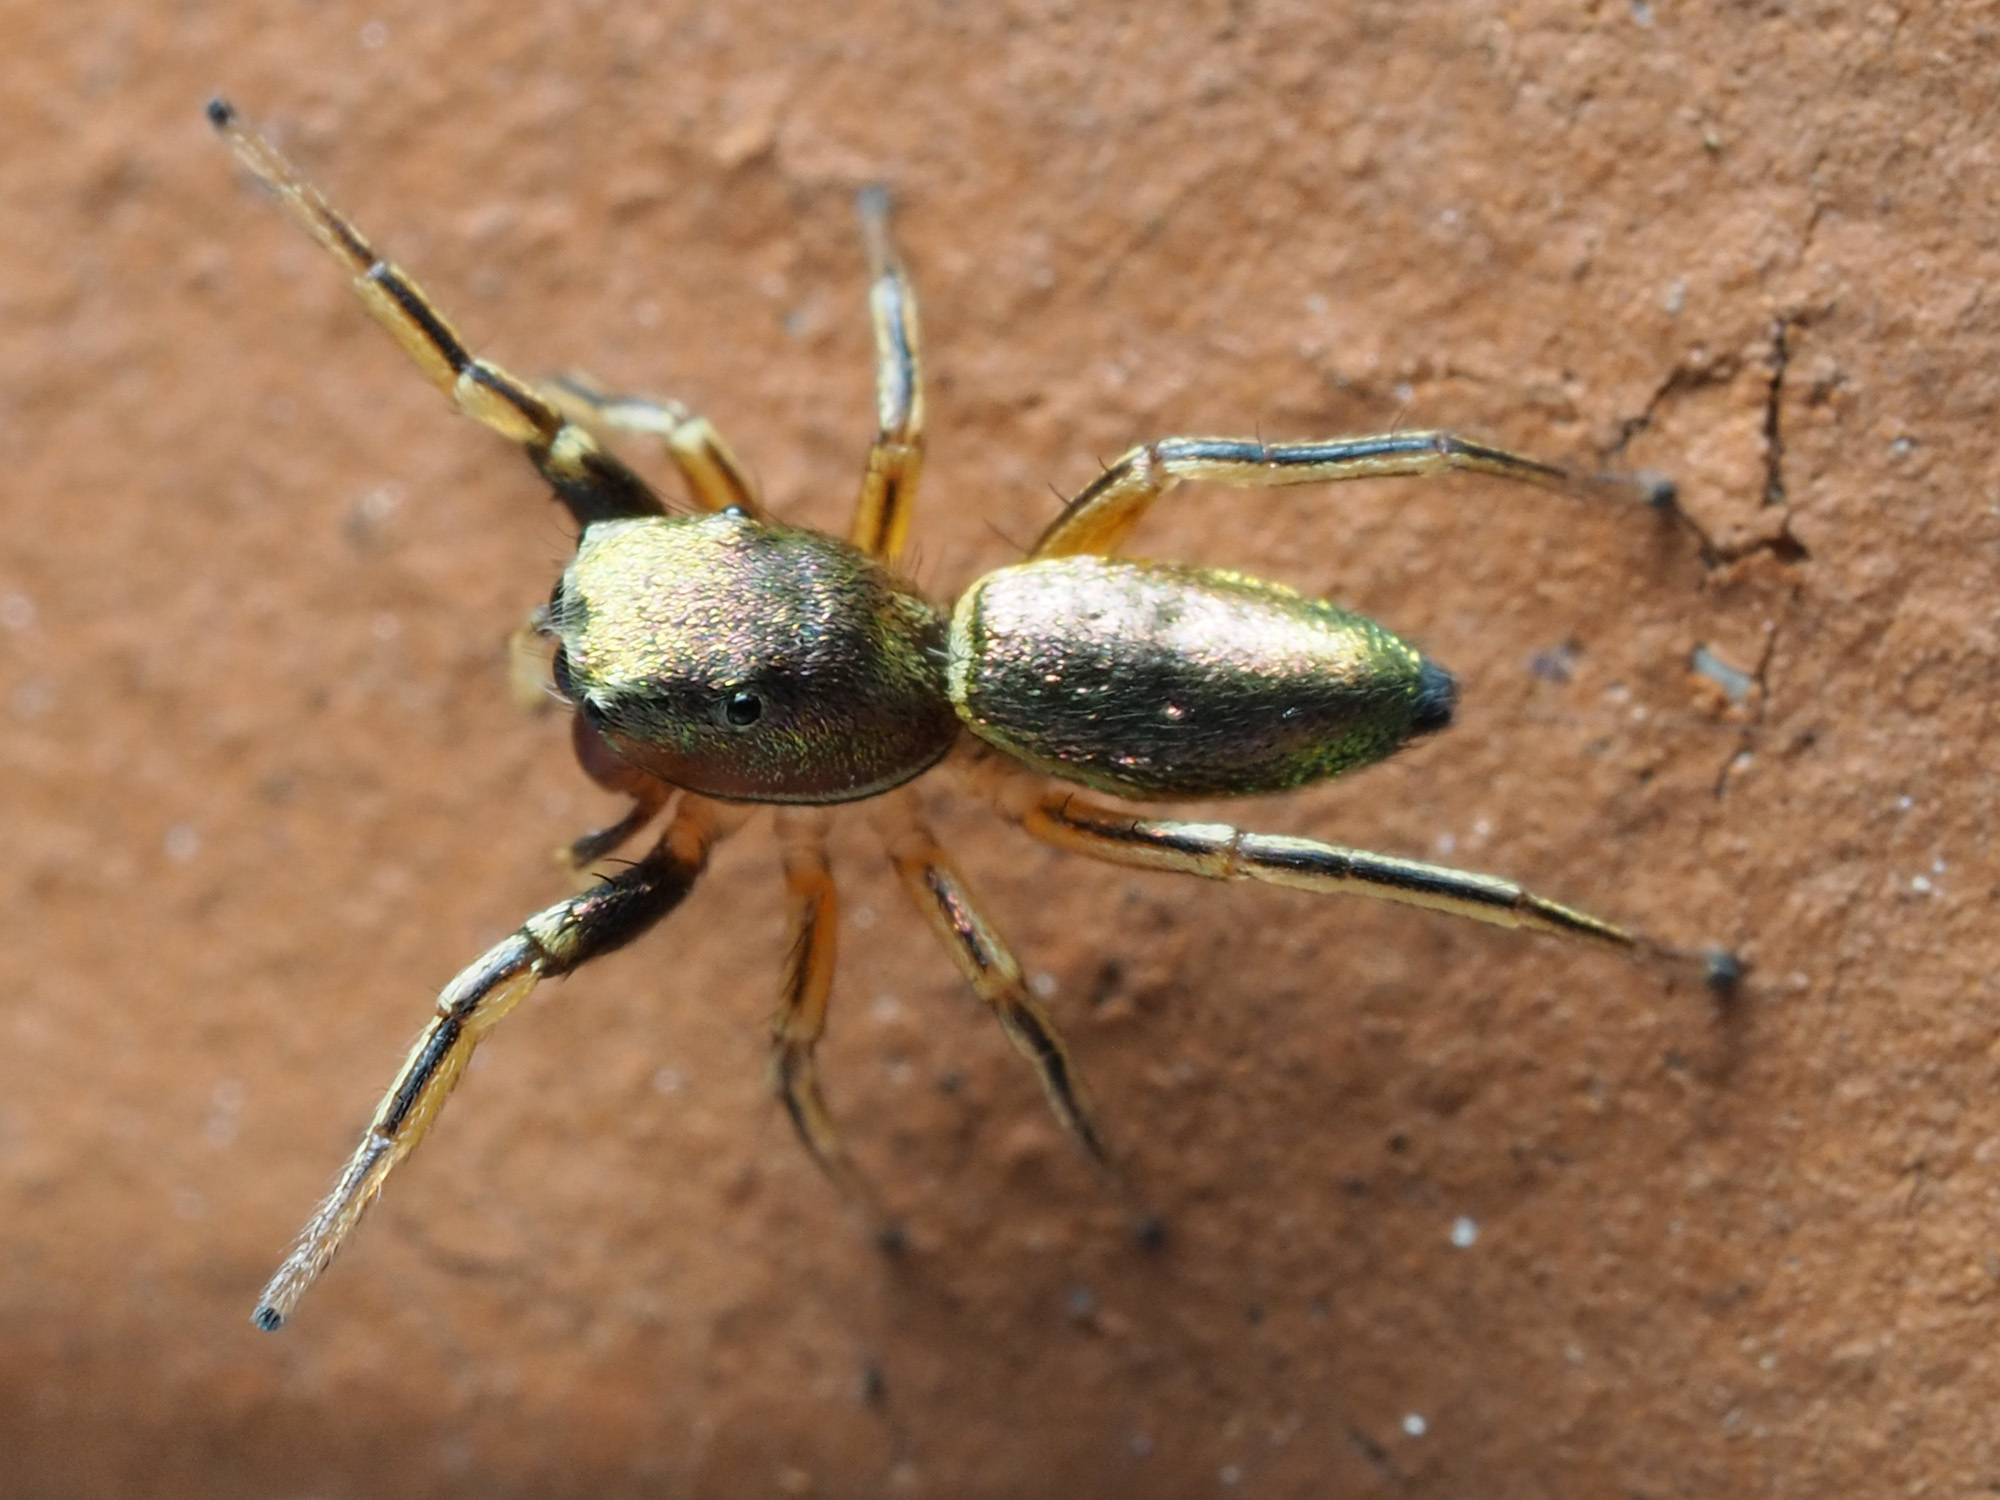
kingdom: Animalia
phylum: Arthropoda
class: Arachnida
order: Araneae
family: Salticidae
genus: Tutelina
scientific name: Tutelina elegans
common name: Thin-spined jumping spider
